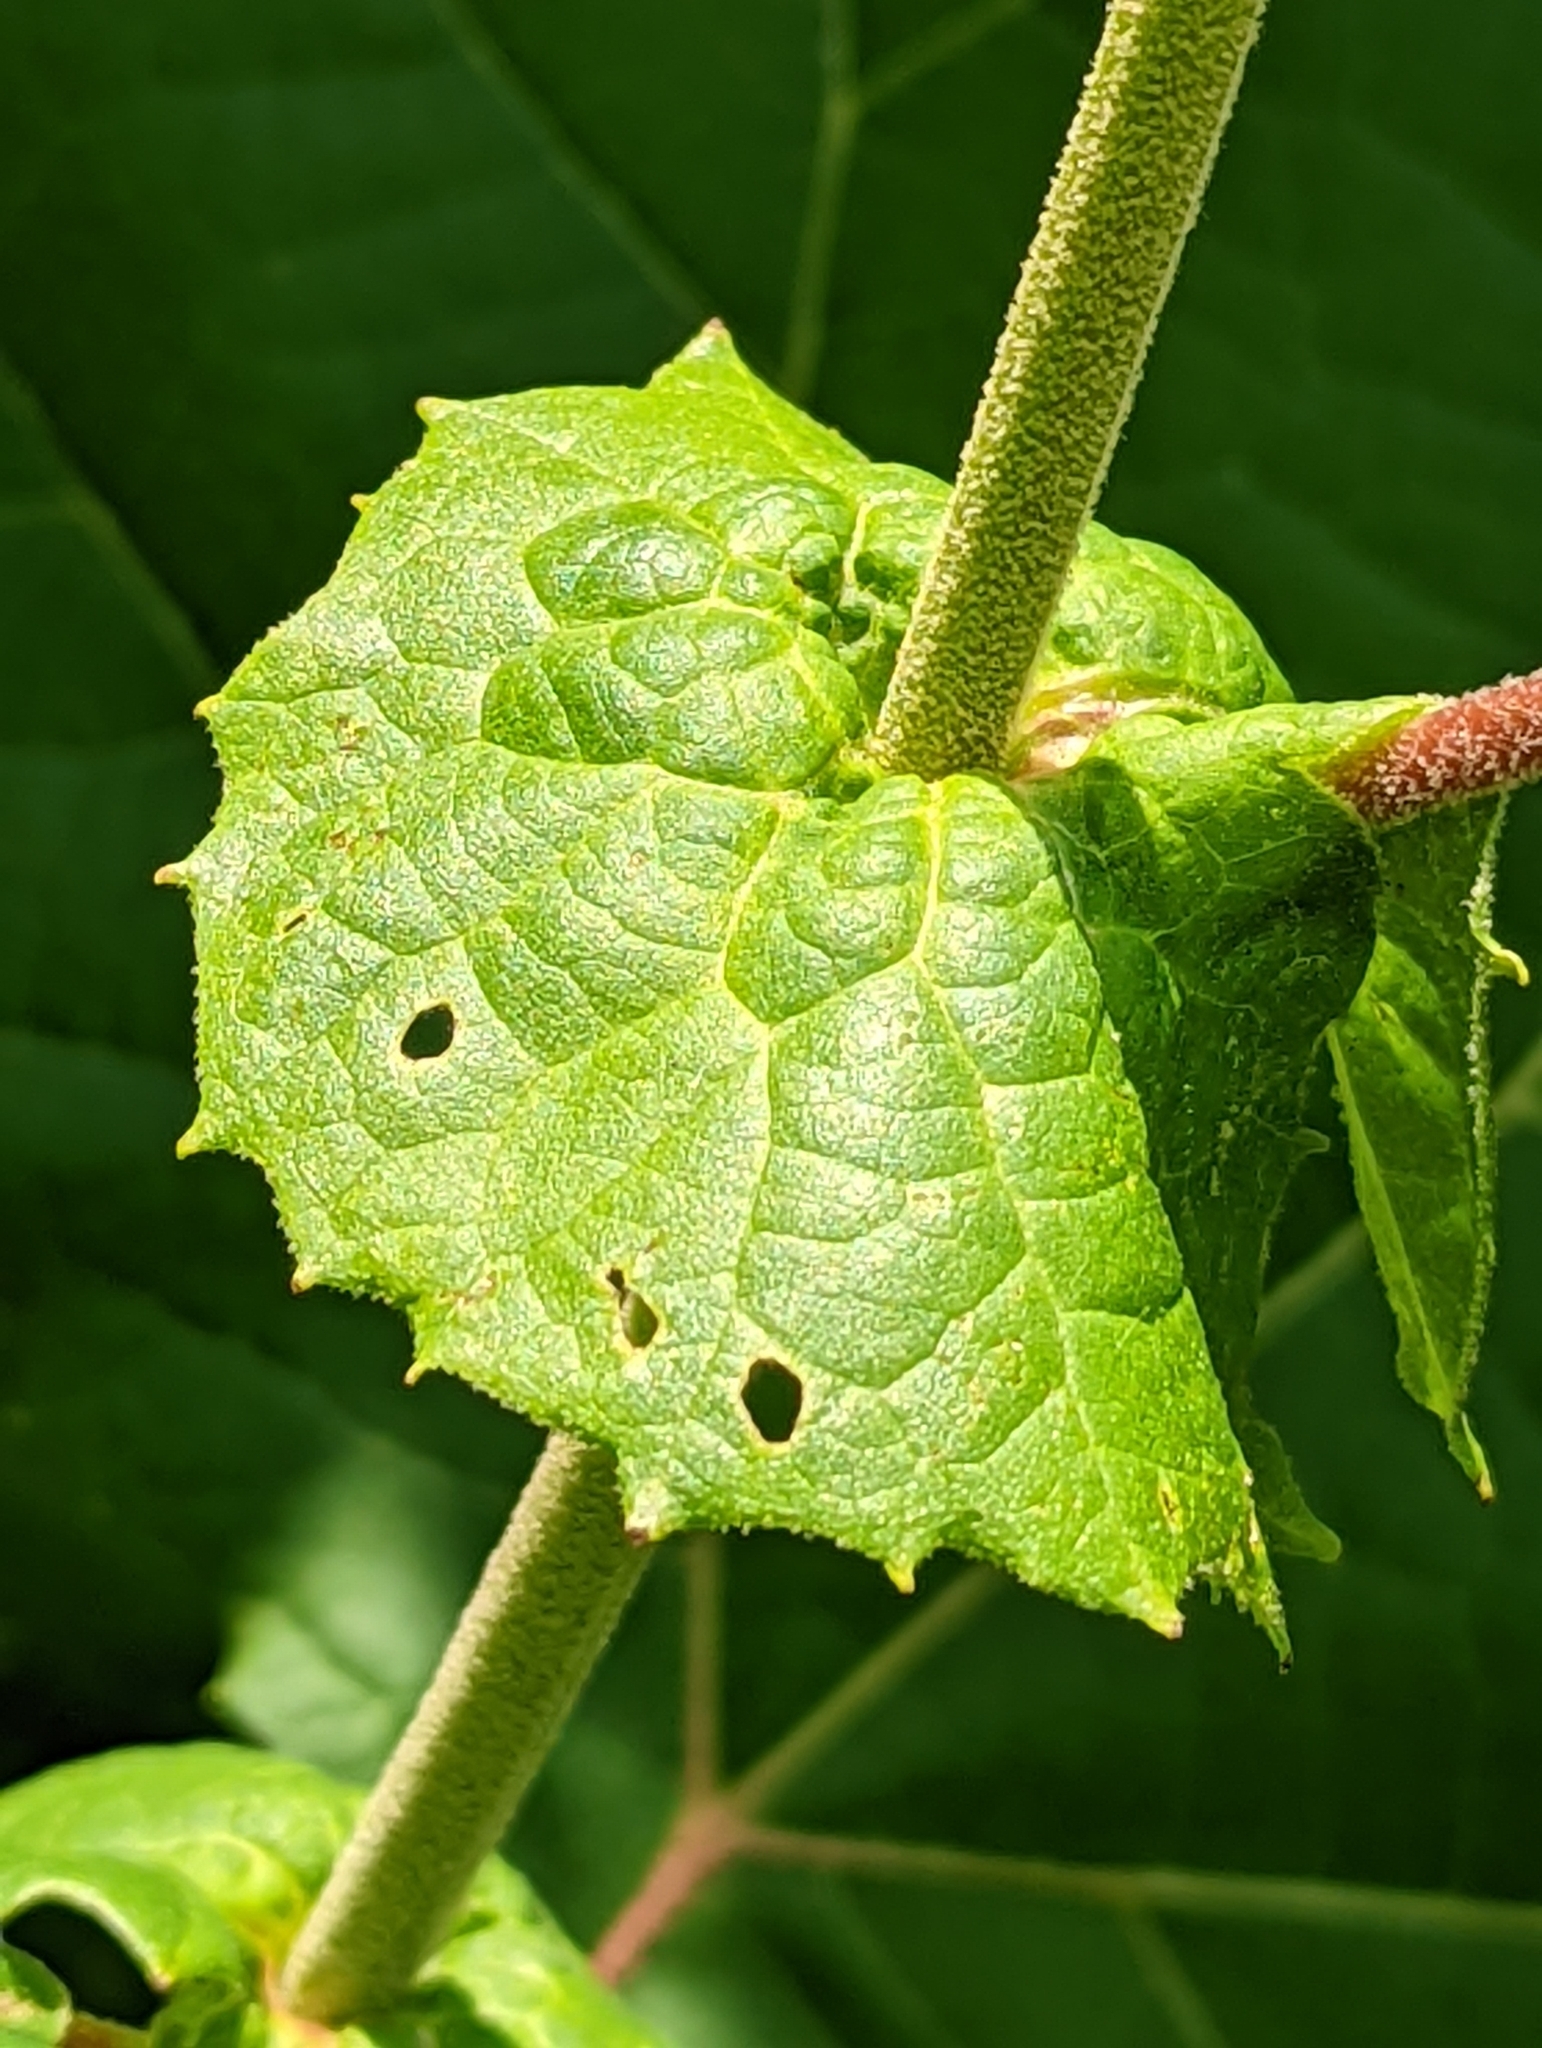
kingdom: Plantae
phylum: Tracheophyta
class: Magnoliopsida
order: Proteales
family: Platanaceae
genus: Platanus
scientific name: Platanus occidentalis
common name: American sycamore
